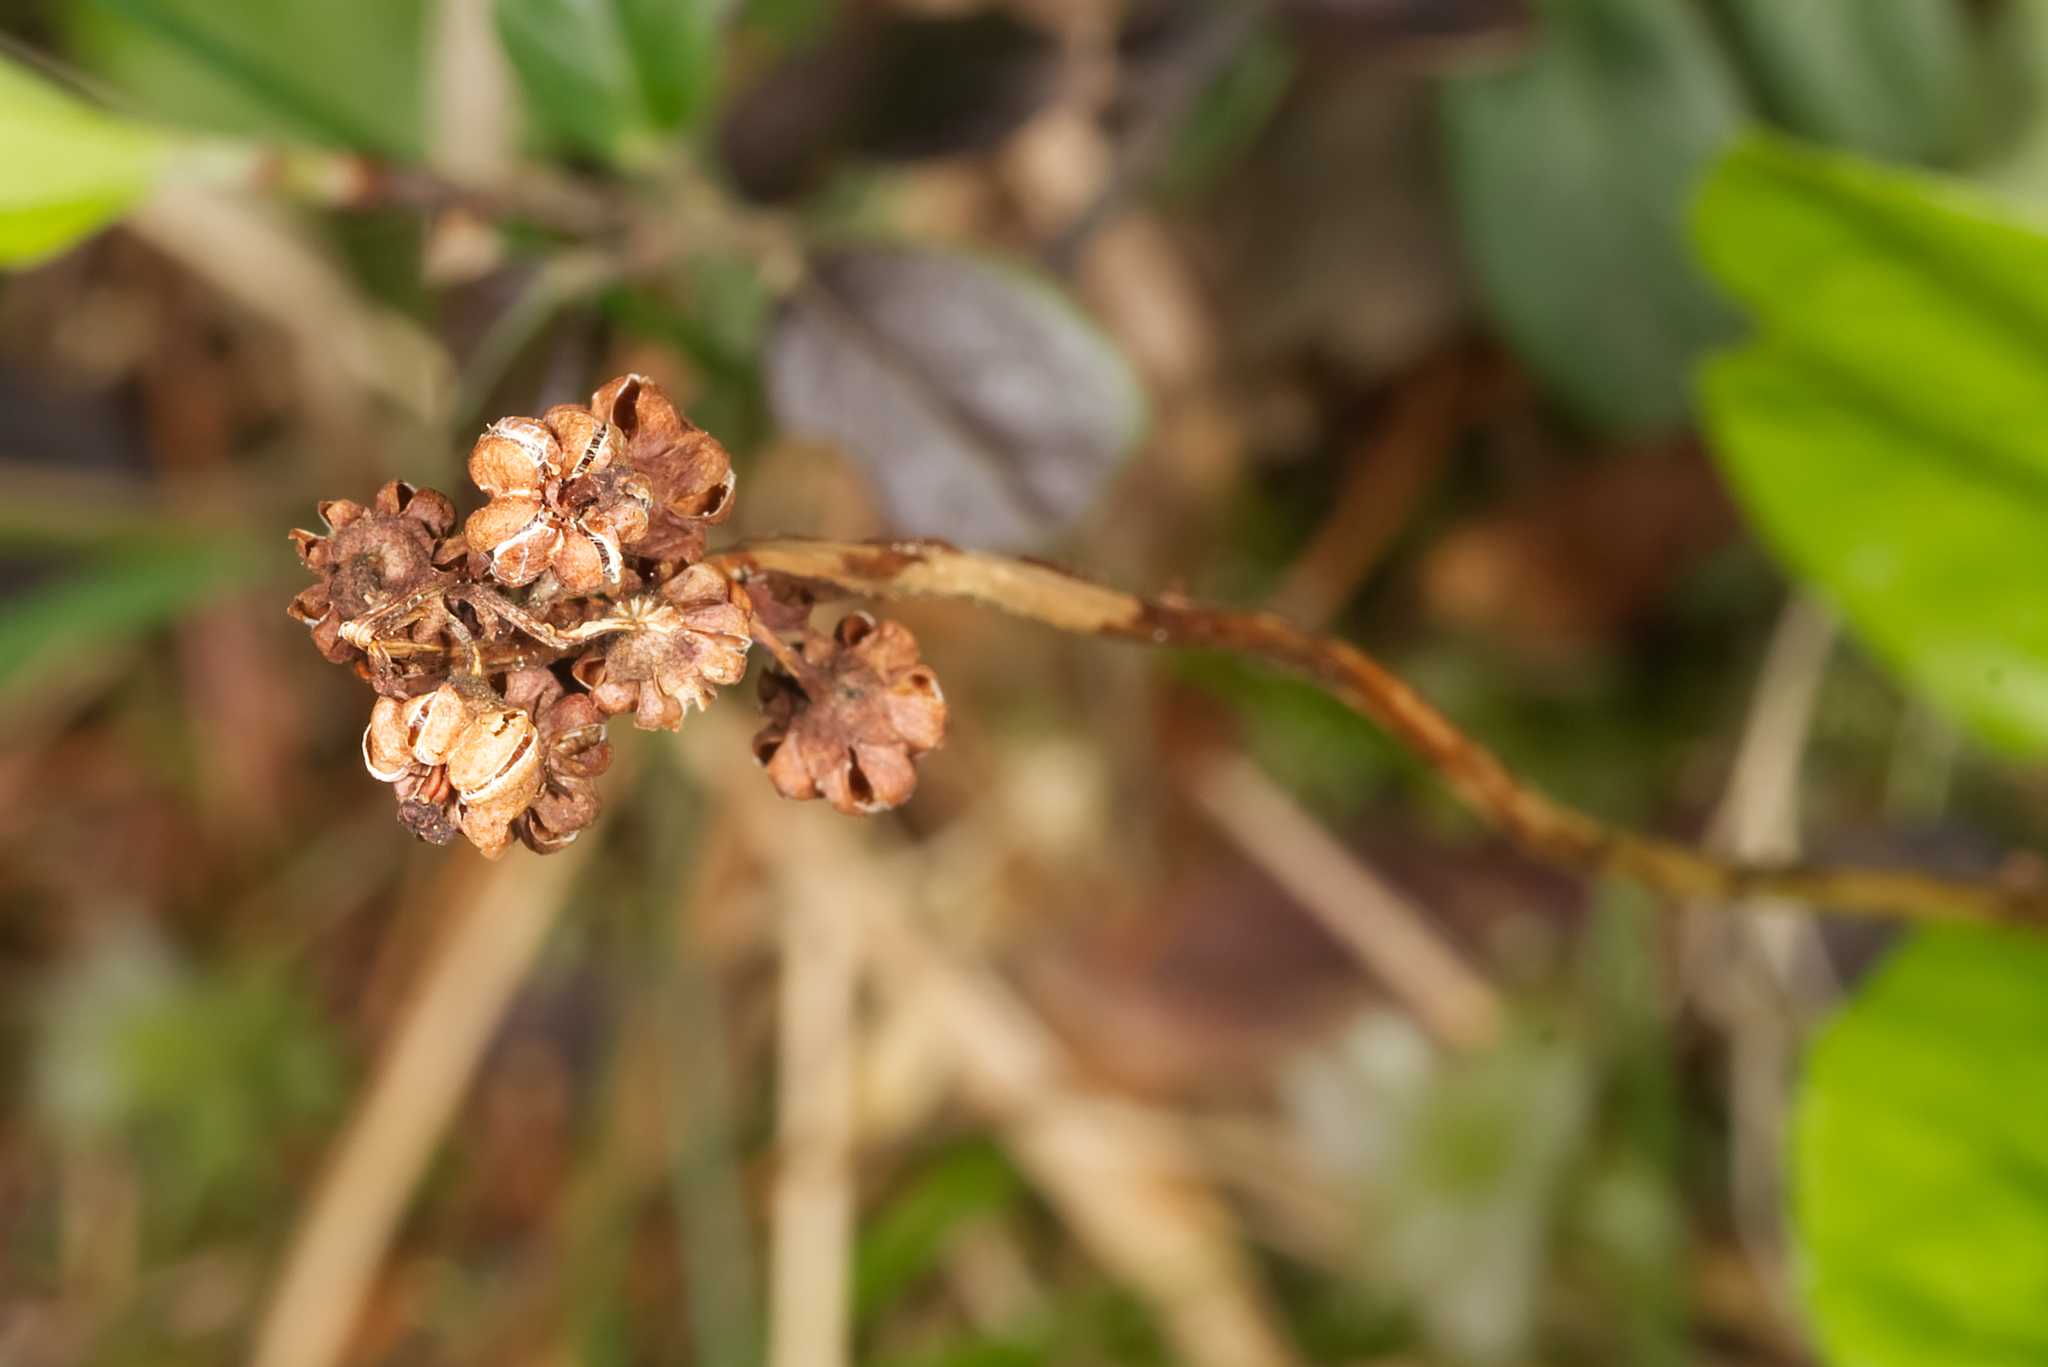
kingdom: Plantae
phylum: Tracheophyta
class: Magnoliopsida
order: Ericales
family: Ericaceae
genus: Pyrola
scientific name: Pyrola minor
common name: Common wintergreen
